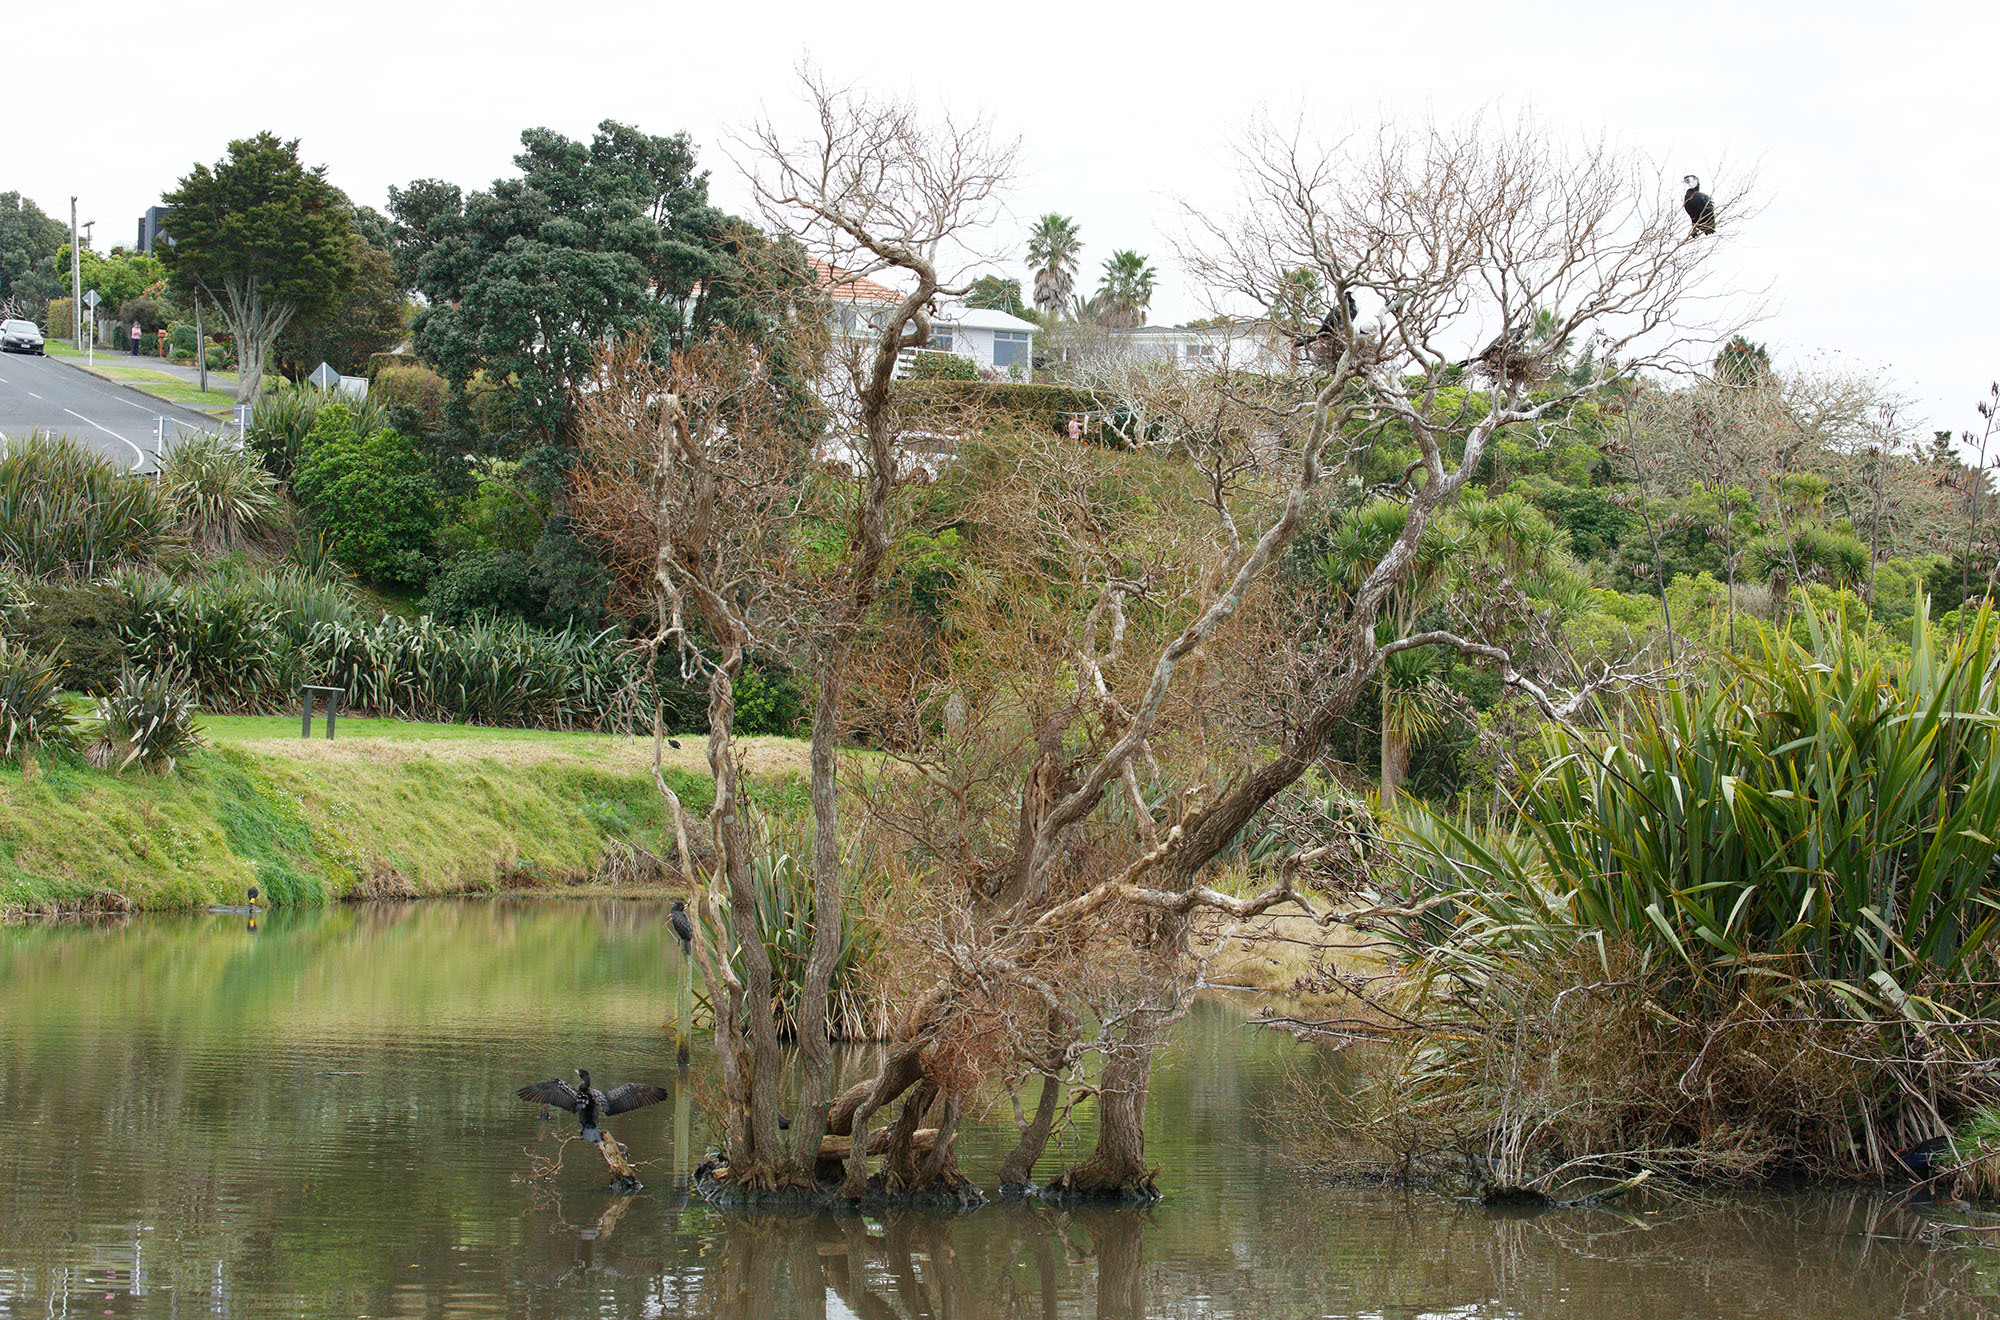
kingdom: Animalia
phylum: Chordata
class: Aves
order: Suliformes
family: Phalacrocoracidae
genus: Phalacrocorax
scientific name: Phalacrocorax sulcirostris
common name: Little black cormorant
